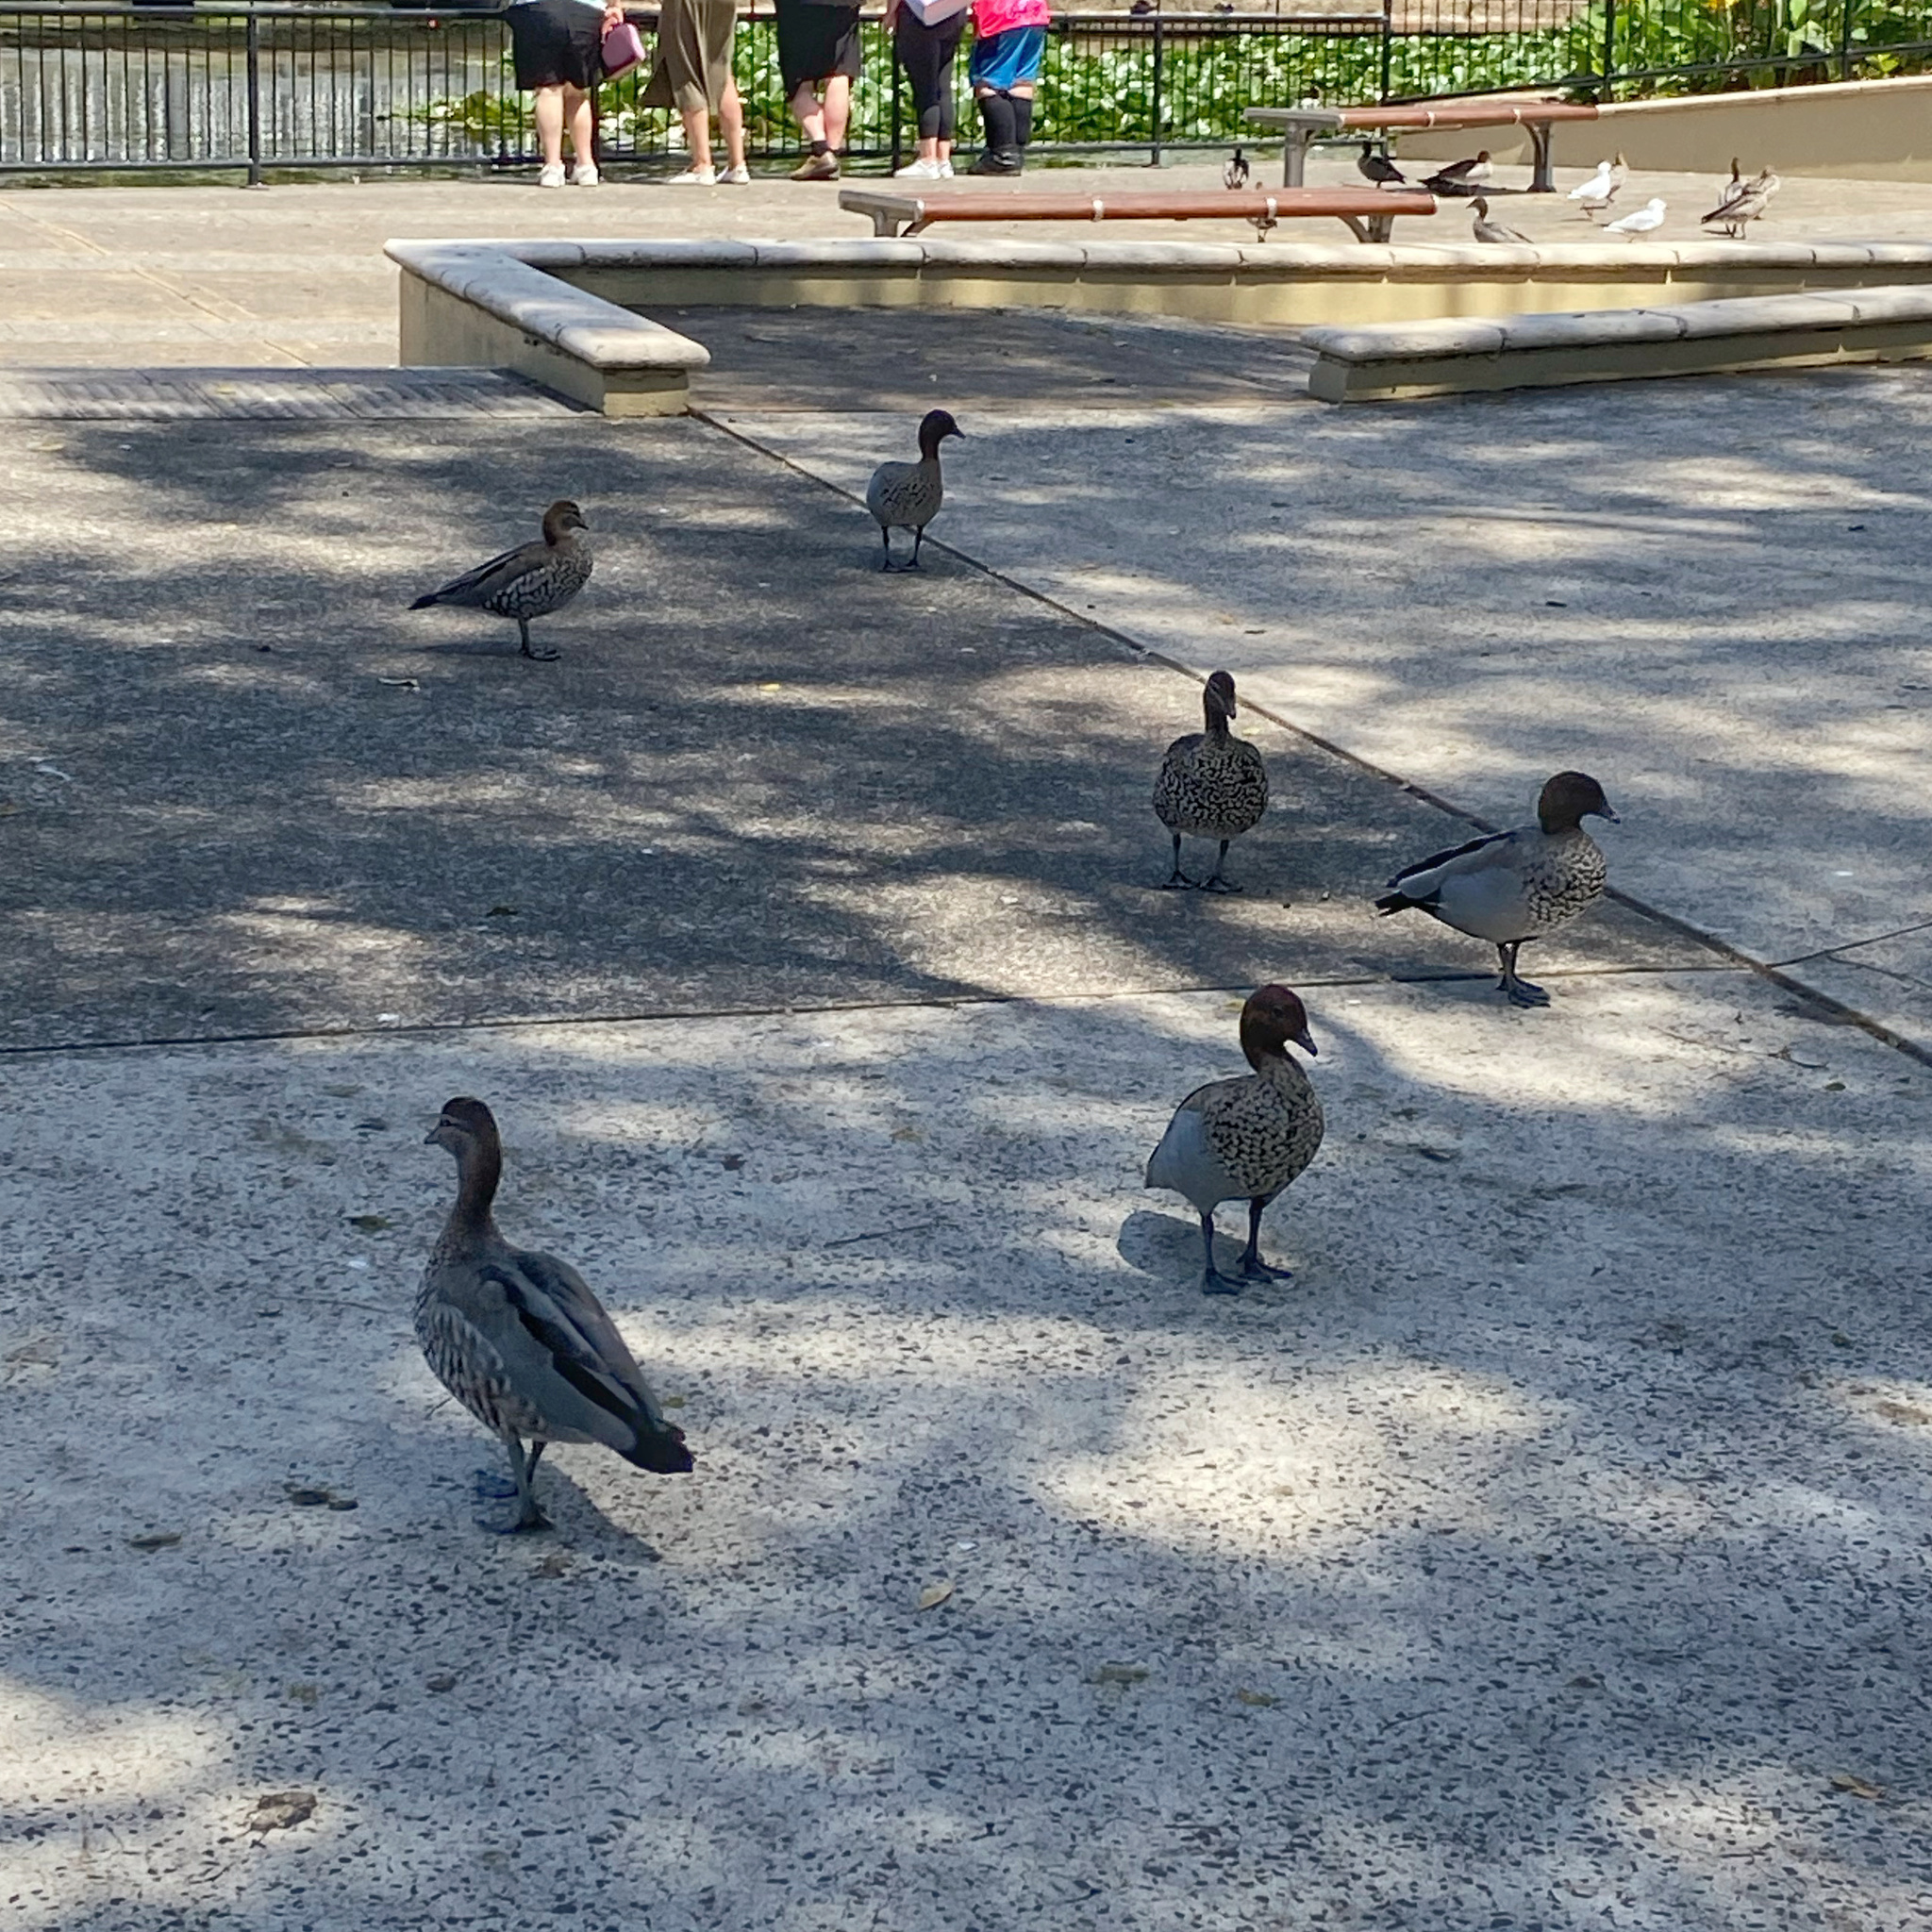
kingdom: Animalia
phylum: Chordata
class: Aves
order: Anseriformes
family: Anatidae
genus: Chenonetta
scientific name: Chenonetta jubata
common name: Maned duck
